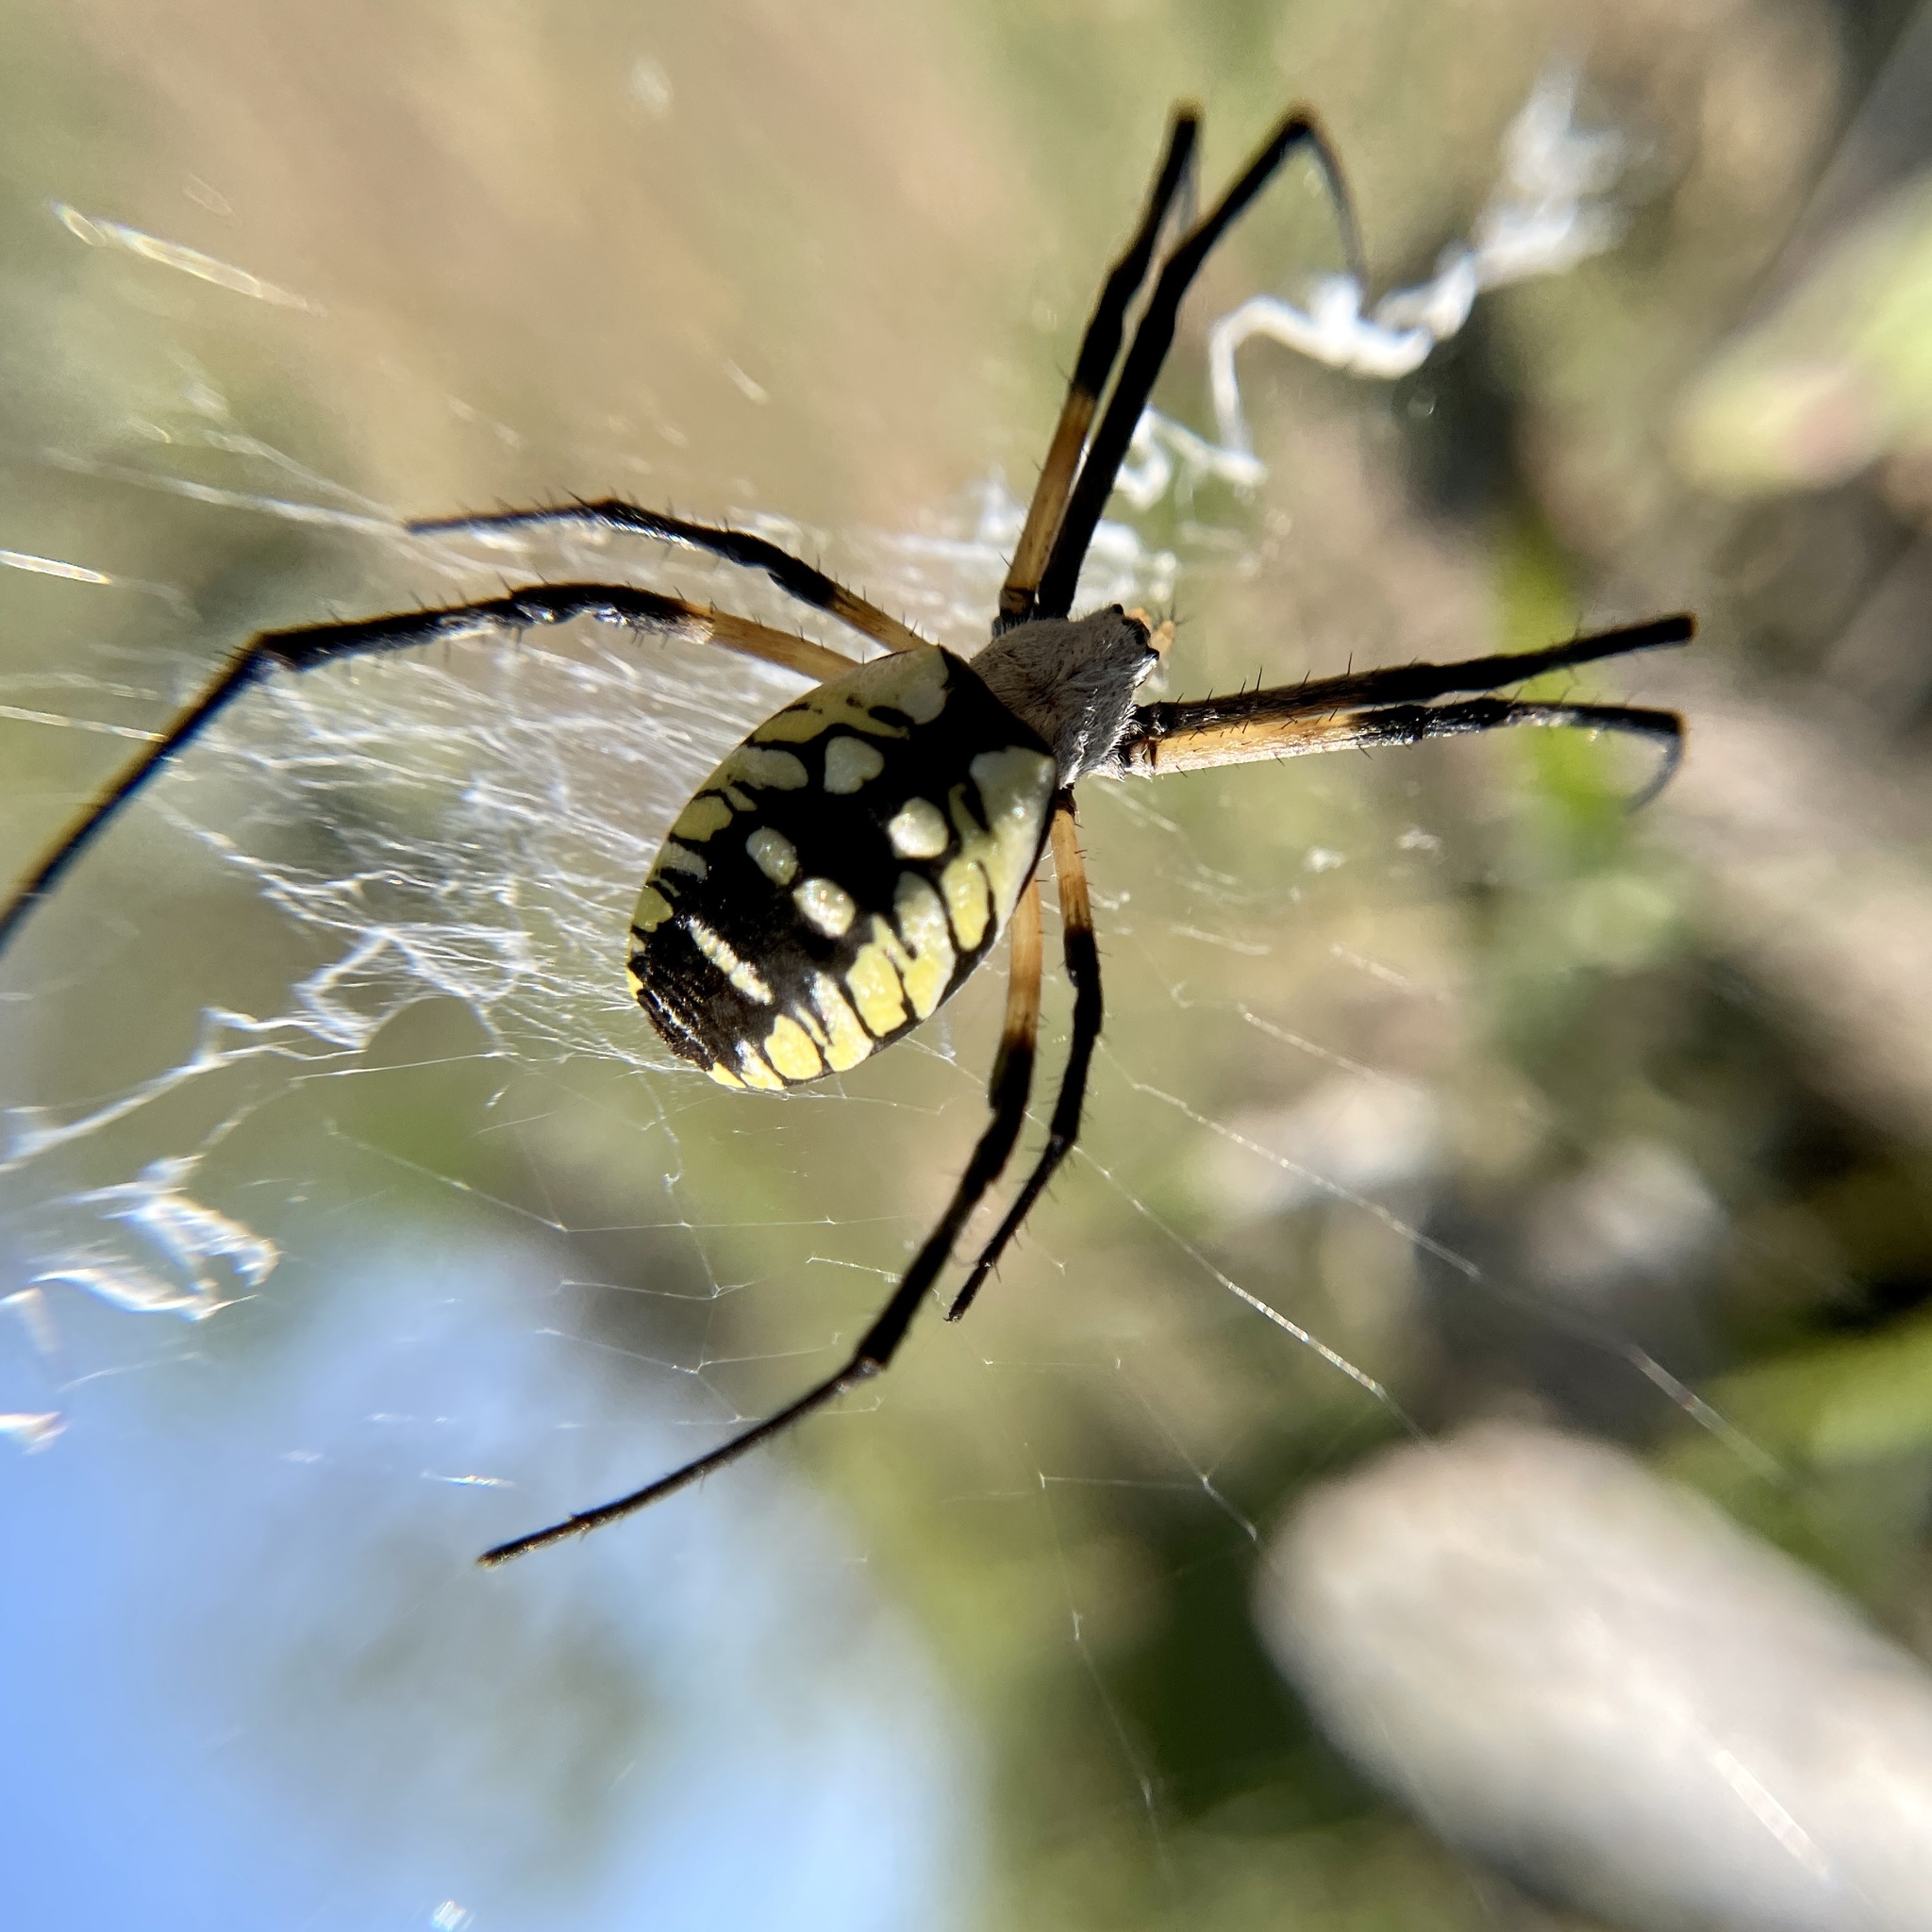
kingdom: Animalia
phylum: Arthropoda
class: Arachnida
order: Araneae
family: Araneidae
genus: Argiope
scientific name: Argiope aurantia
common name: Orb weavers
